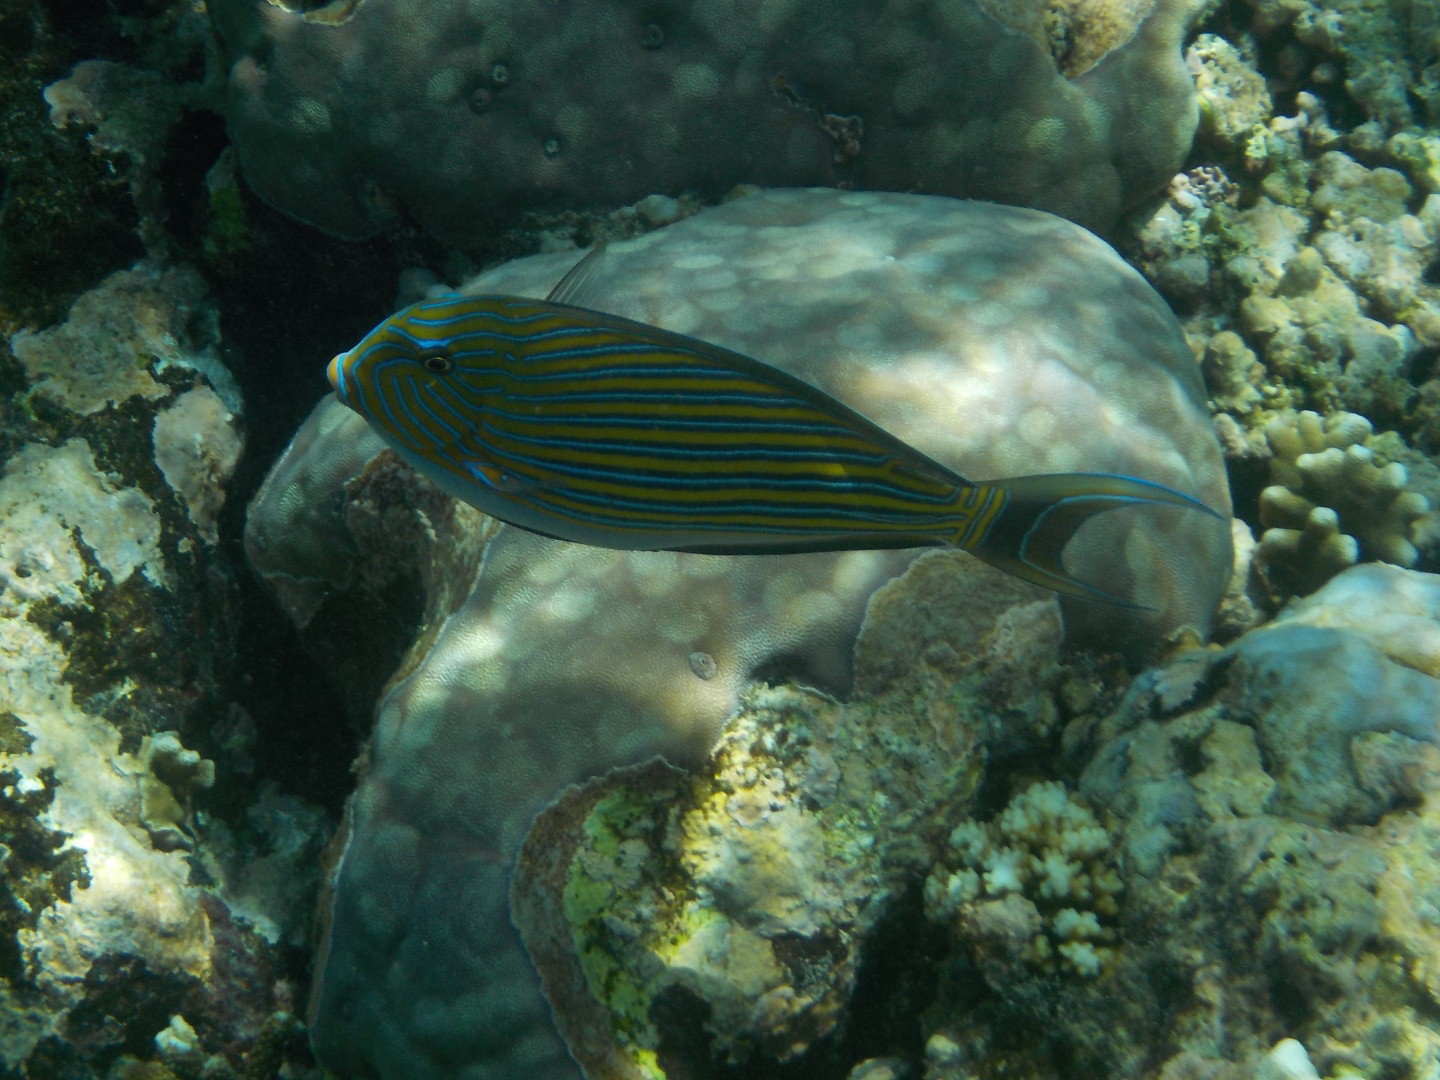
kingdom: Animalia
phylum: Chordata
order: Perciformes
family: Acanthuridae
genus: Acanthurus
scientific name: Acanthurus lineatus
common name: Striped surgeonfish
